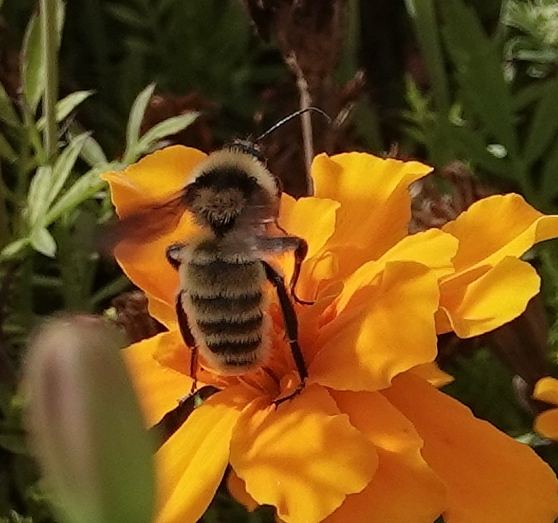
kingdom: Animalia
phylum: Arthropoda
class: Insecta
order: Hymenoptera
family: Apidae
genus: Bombus
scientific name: Bombus pensylvanicus
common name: Bumble bee
